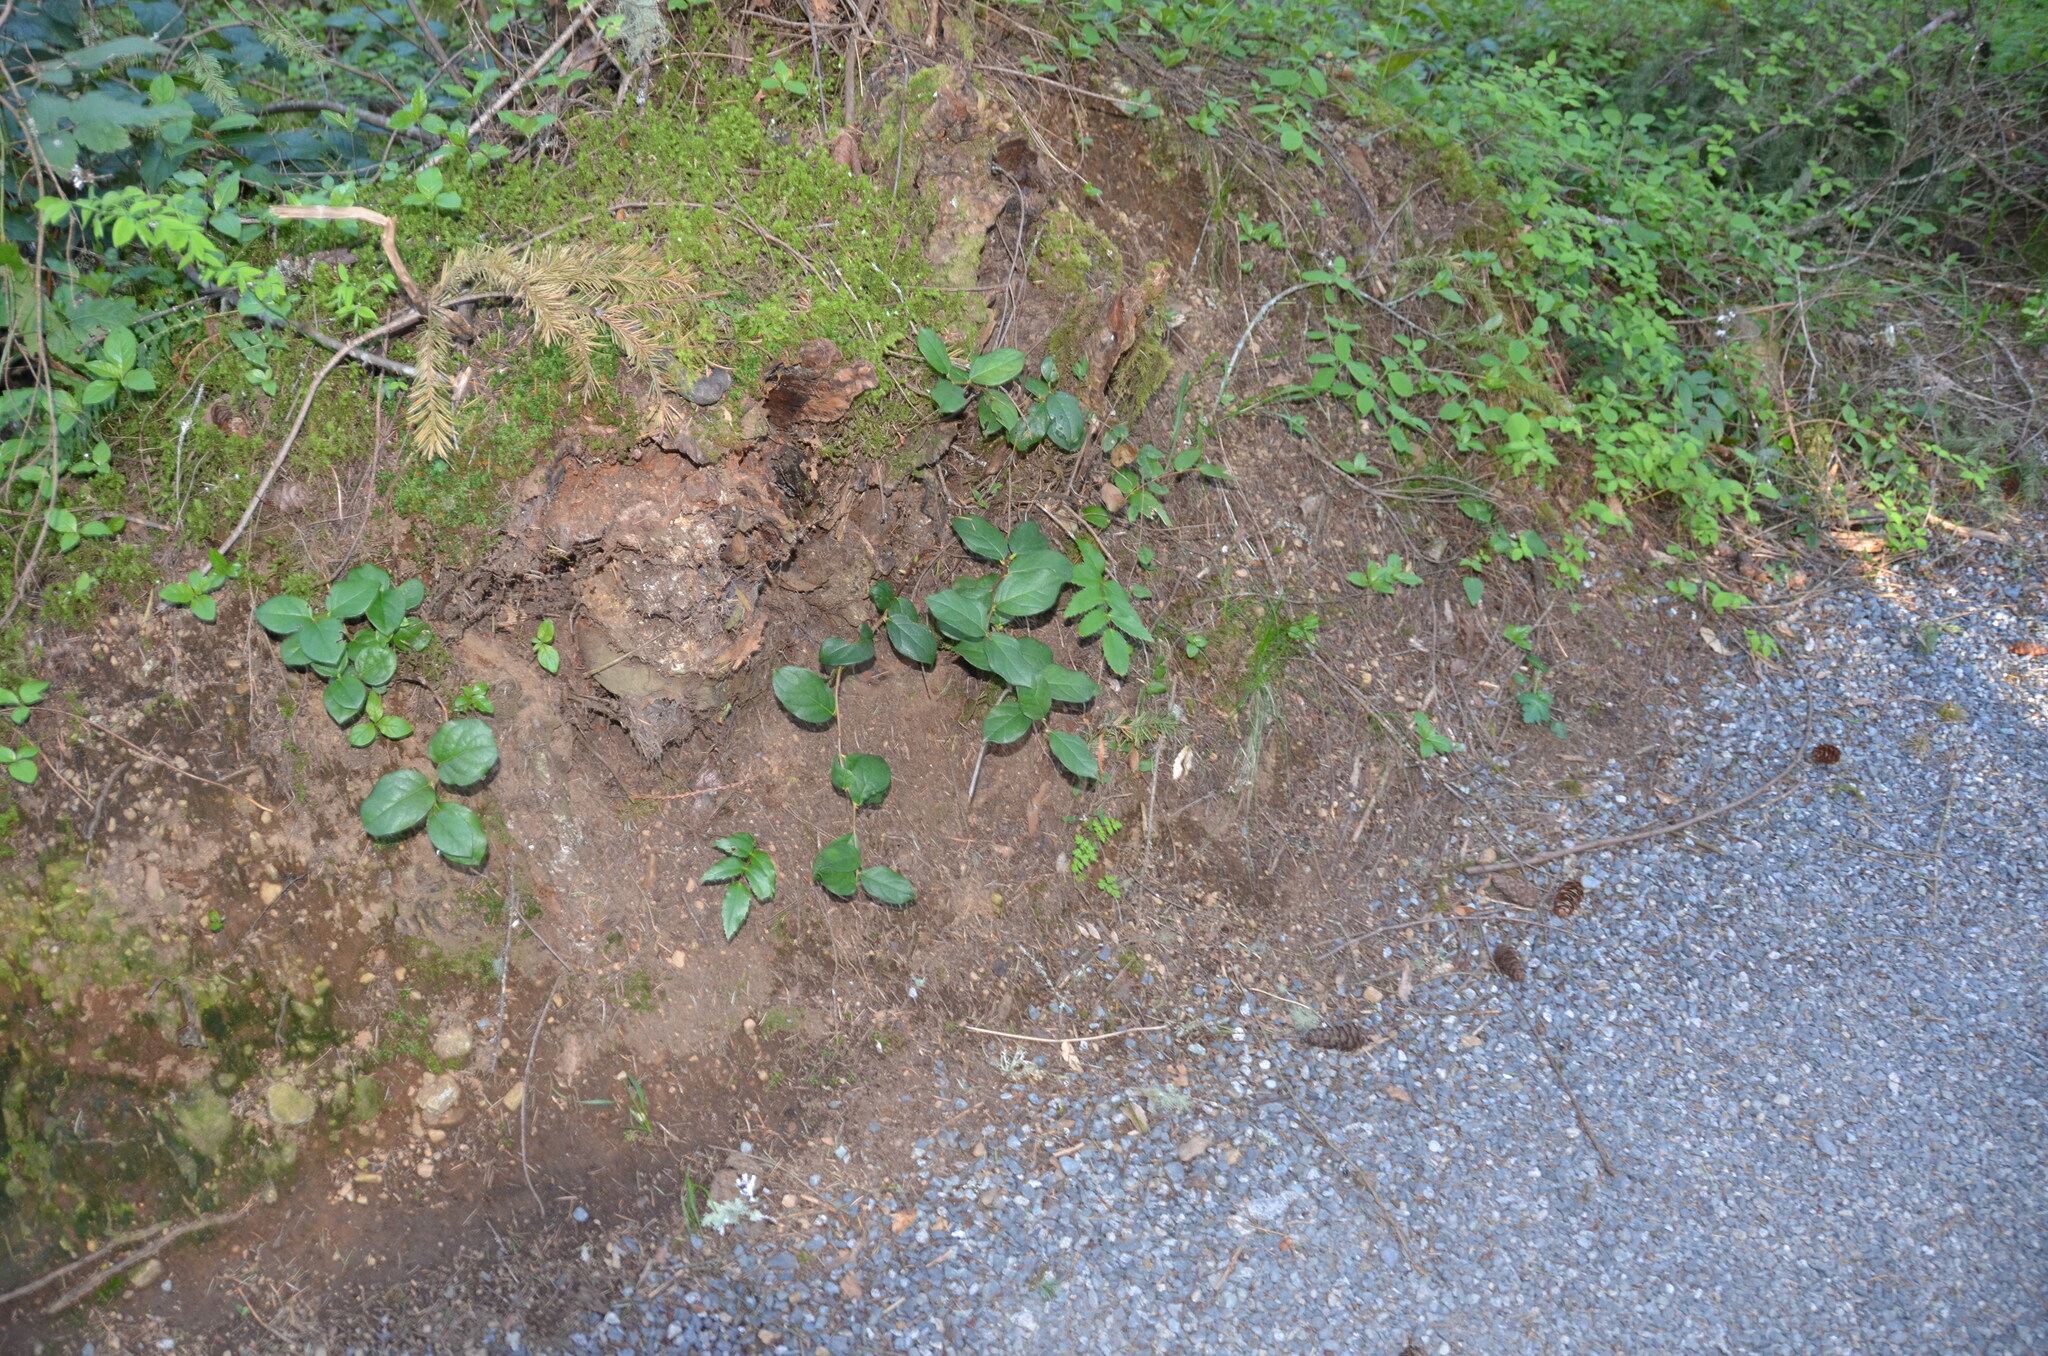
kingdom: Plantae
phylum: Tracheophyta
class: Magnoliopsida
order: Ericales
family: Ericaceae
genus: Gaultheria
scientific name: Gaultheria shallon
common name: Shallon
